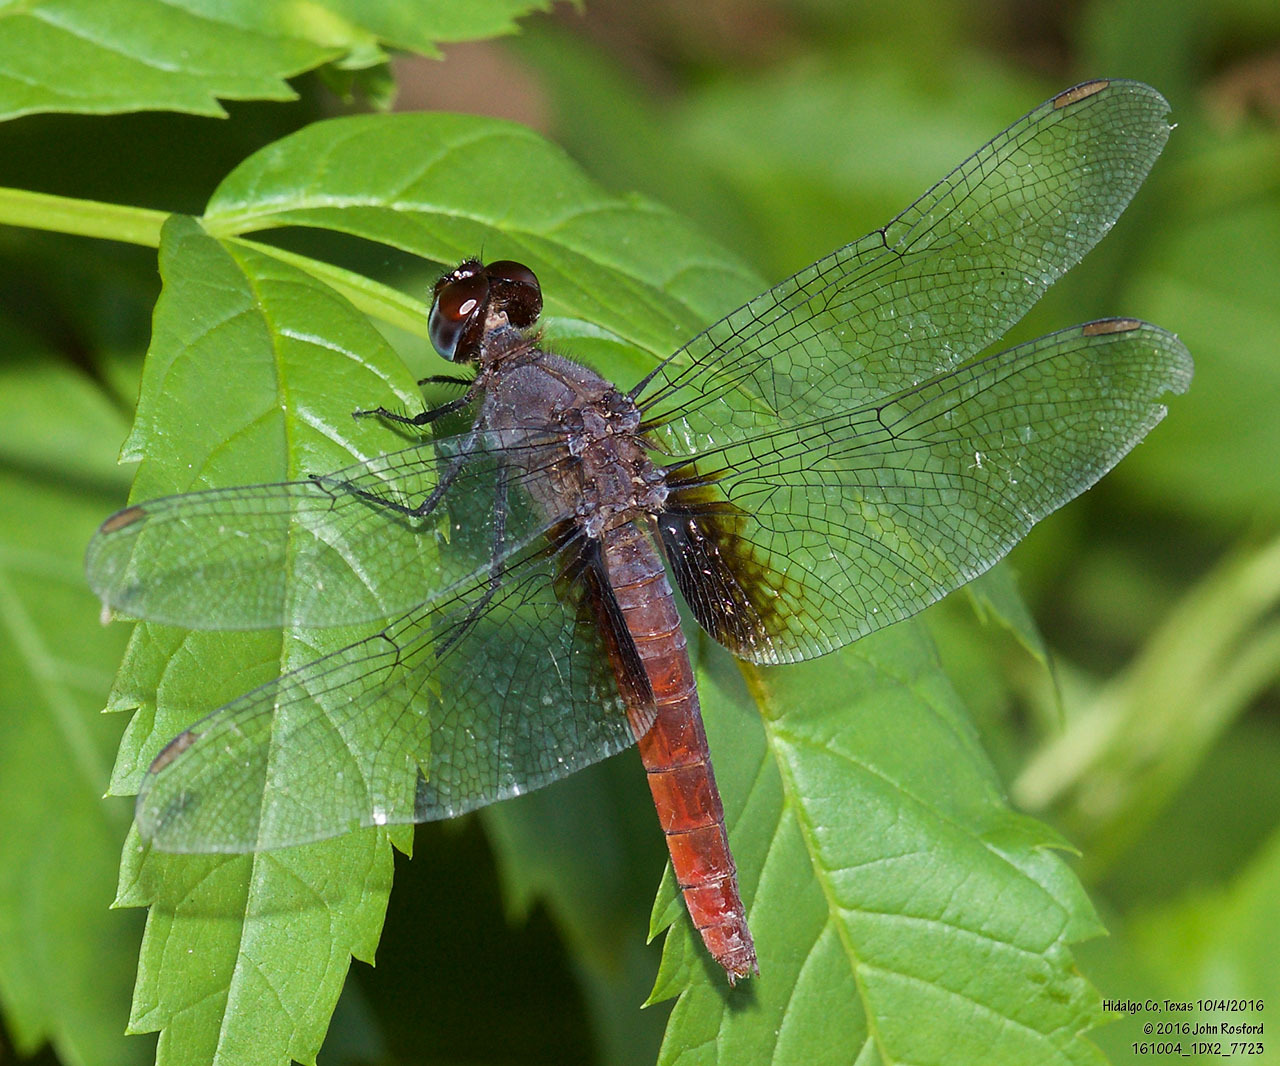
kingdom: Animalia
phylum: Arthropoda
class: Insecta
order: Odonata
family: Libellulidae
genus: Planiplax
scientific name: Planiplax sanguiniventris
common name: Mexican scarlet-tail
